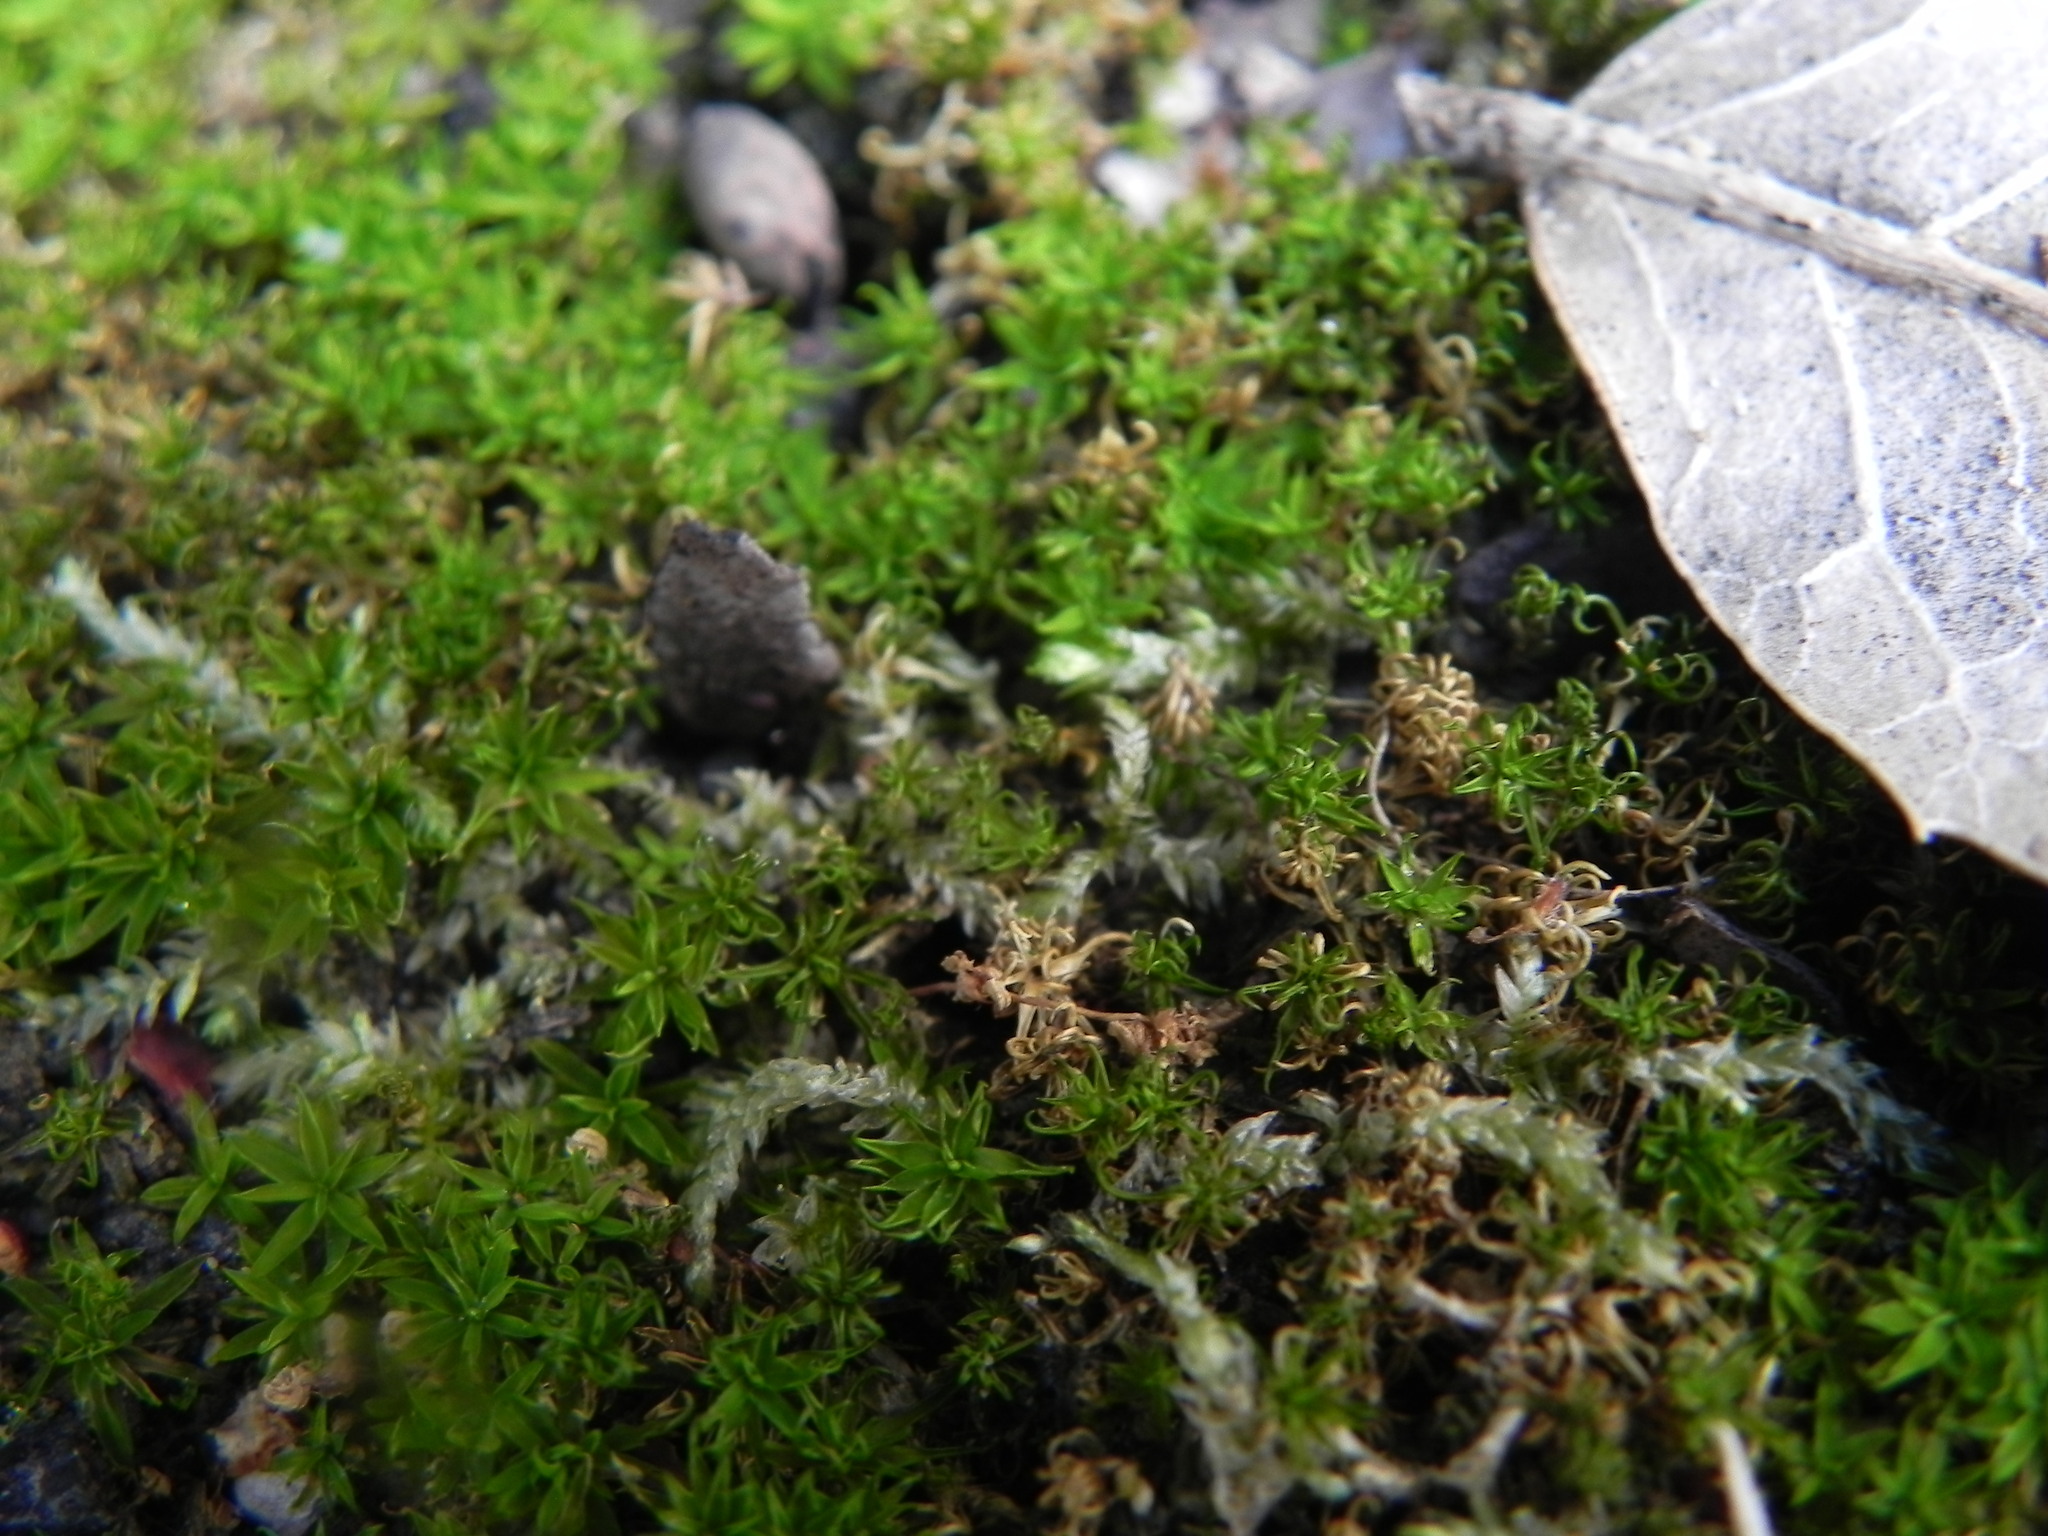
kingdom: Plantae
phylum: Bryophyta
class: Bryopsida
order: Pottiales
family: Pottiaceae
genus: Timmiella
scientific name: Timmiella
